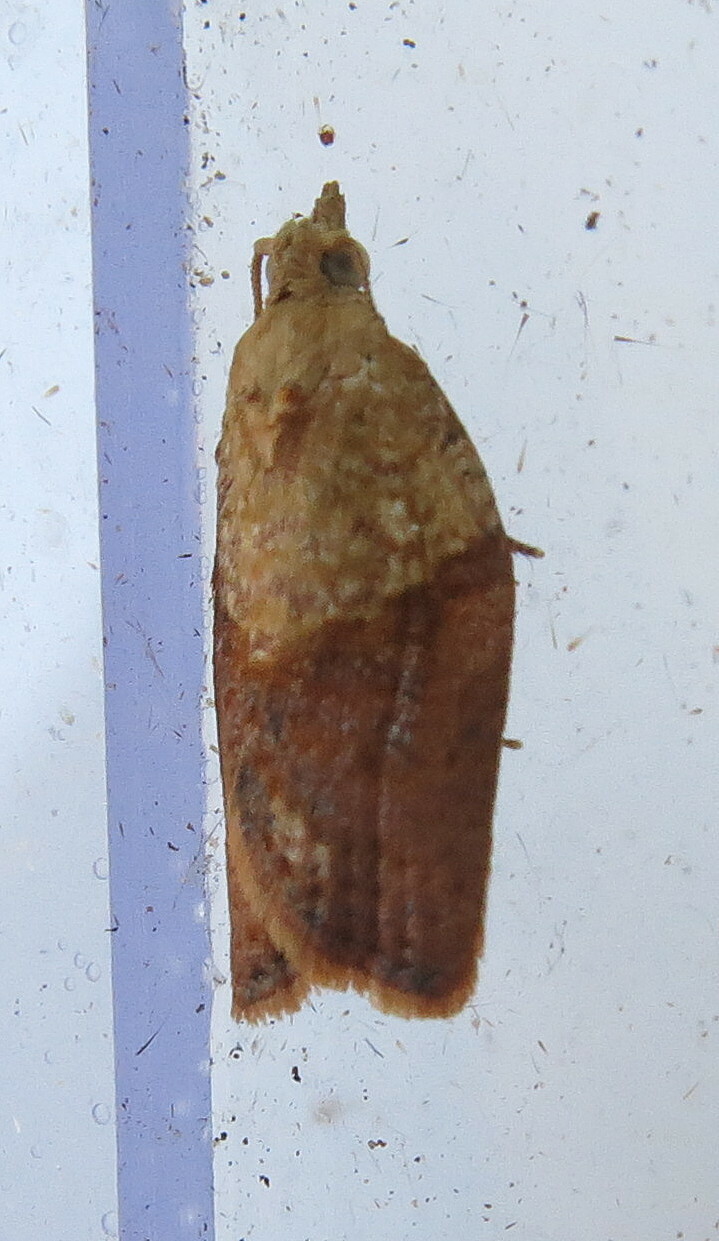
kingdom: Animalia
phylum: Arthropoda
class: Insecta
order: Lepidoptera
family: Tortricidae
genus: Epiphyas
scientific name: Epiphyas postvittana
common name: Light brown apple moth
